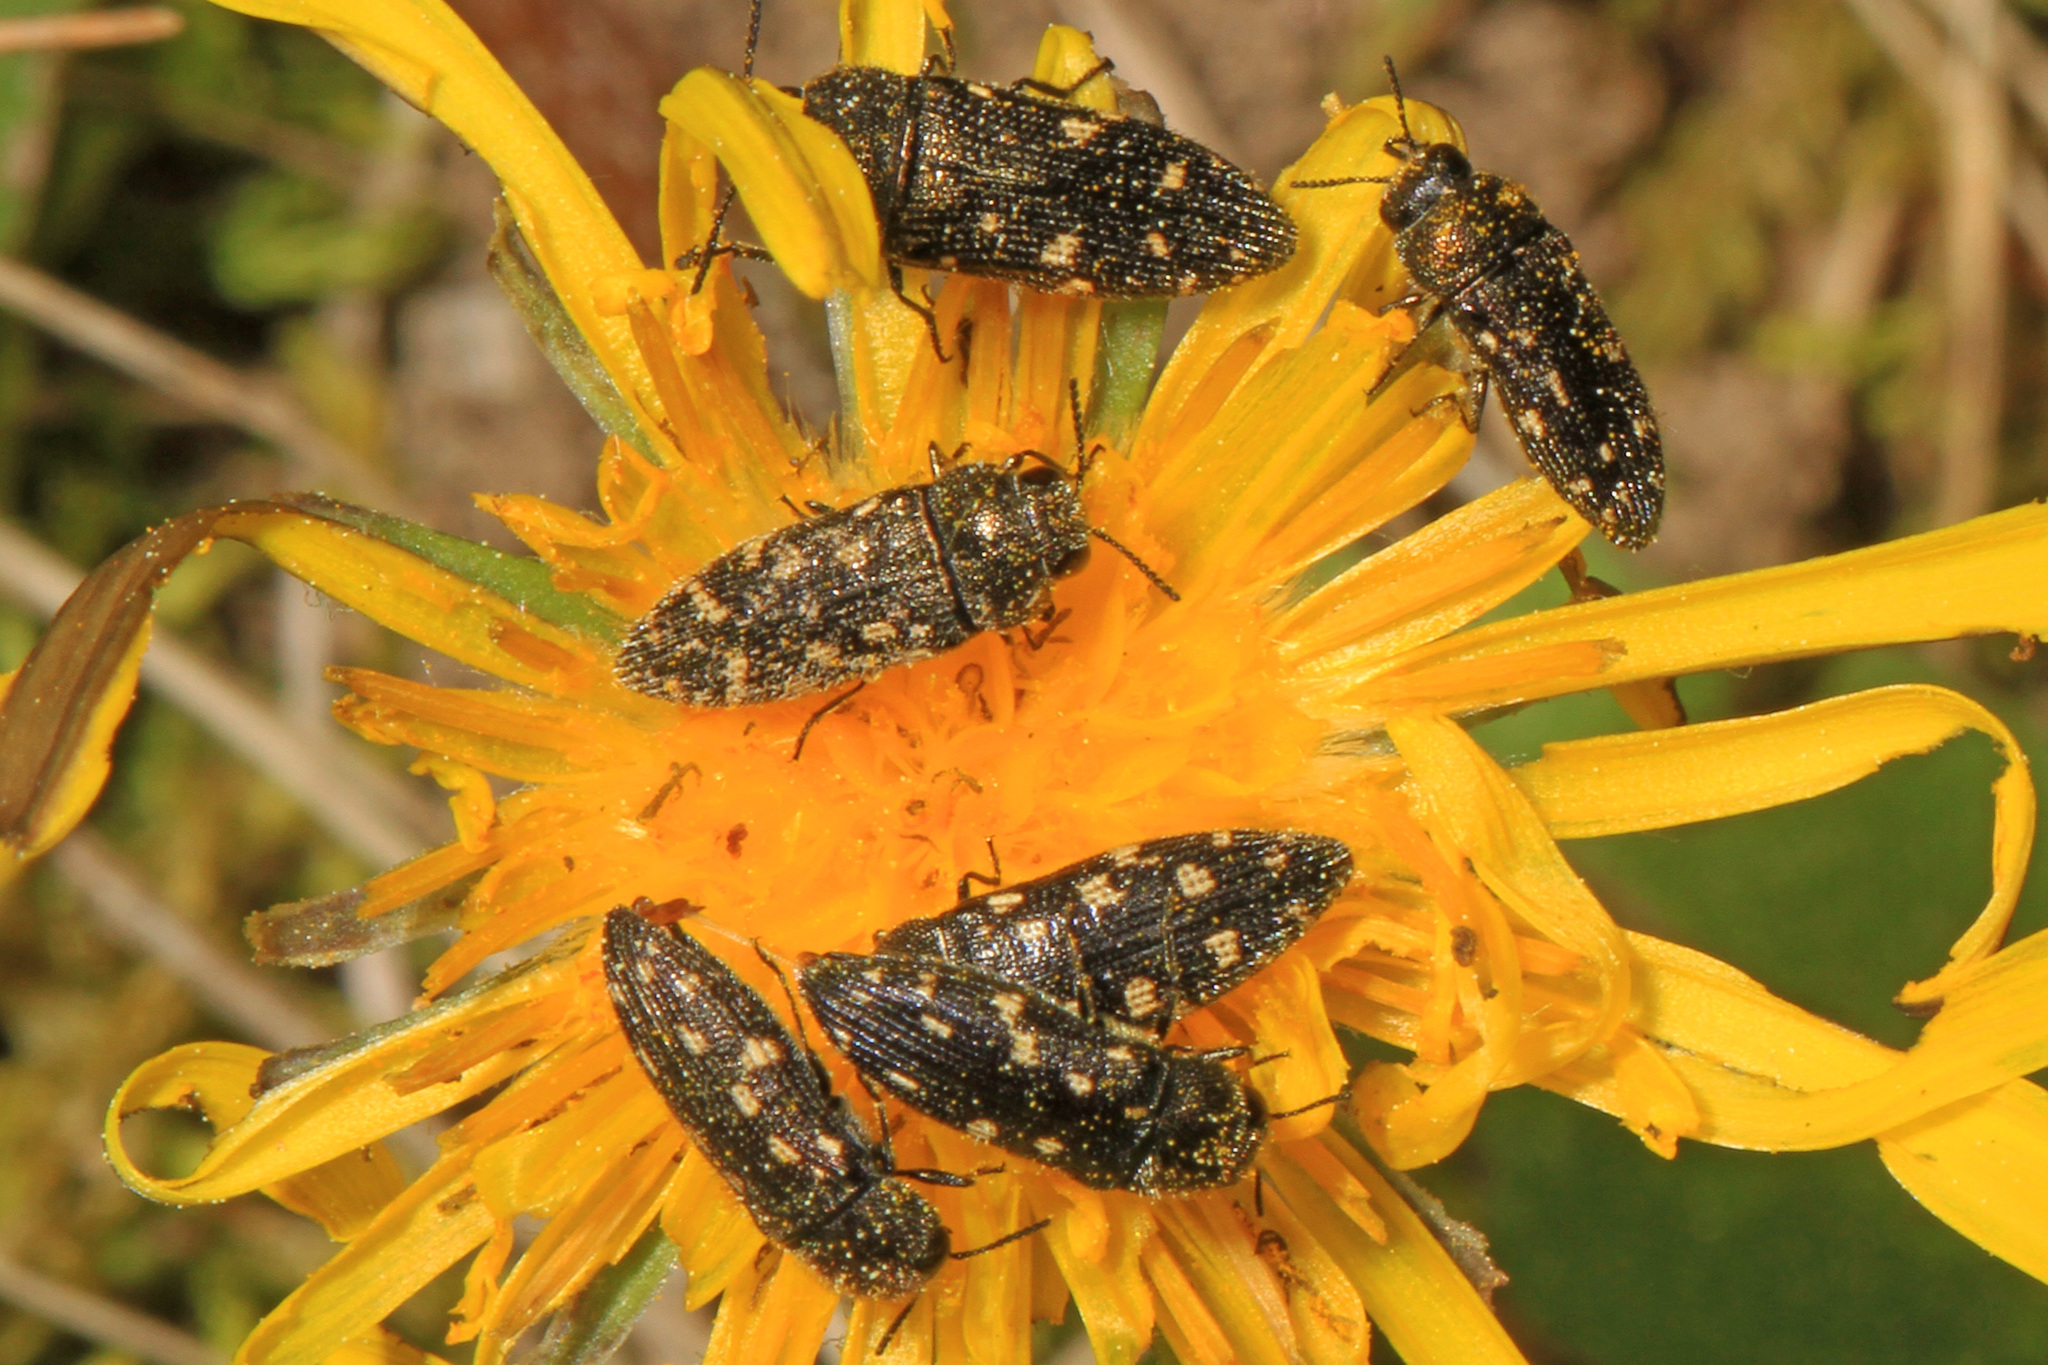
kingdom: Animalia
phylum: Arthropoda
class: Insecta
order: Coleoptera
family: Buprestidae
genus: Acmaeodera
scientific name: Acmaeodera tubulus
